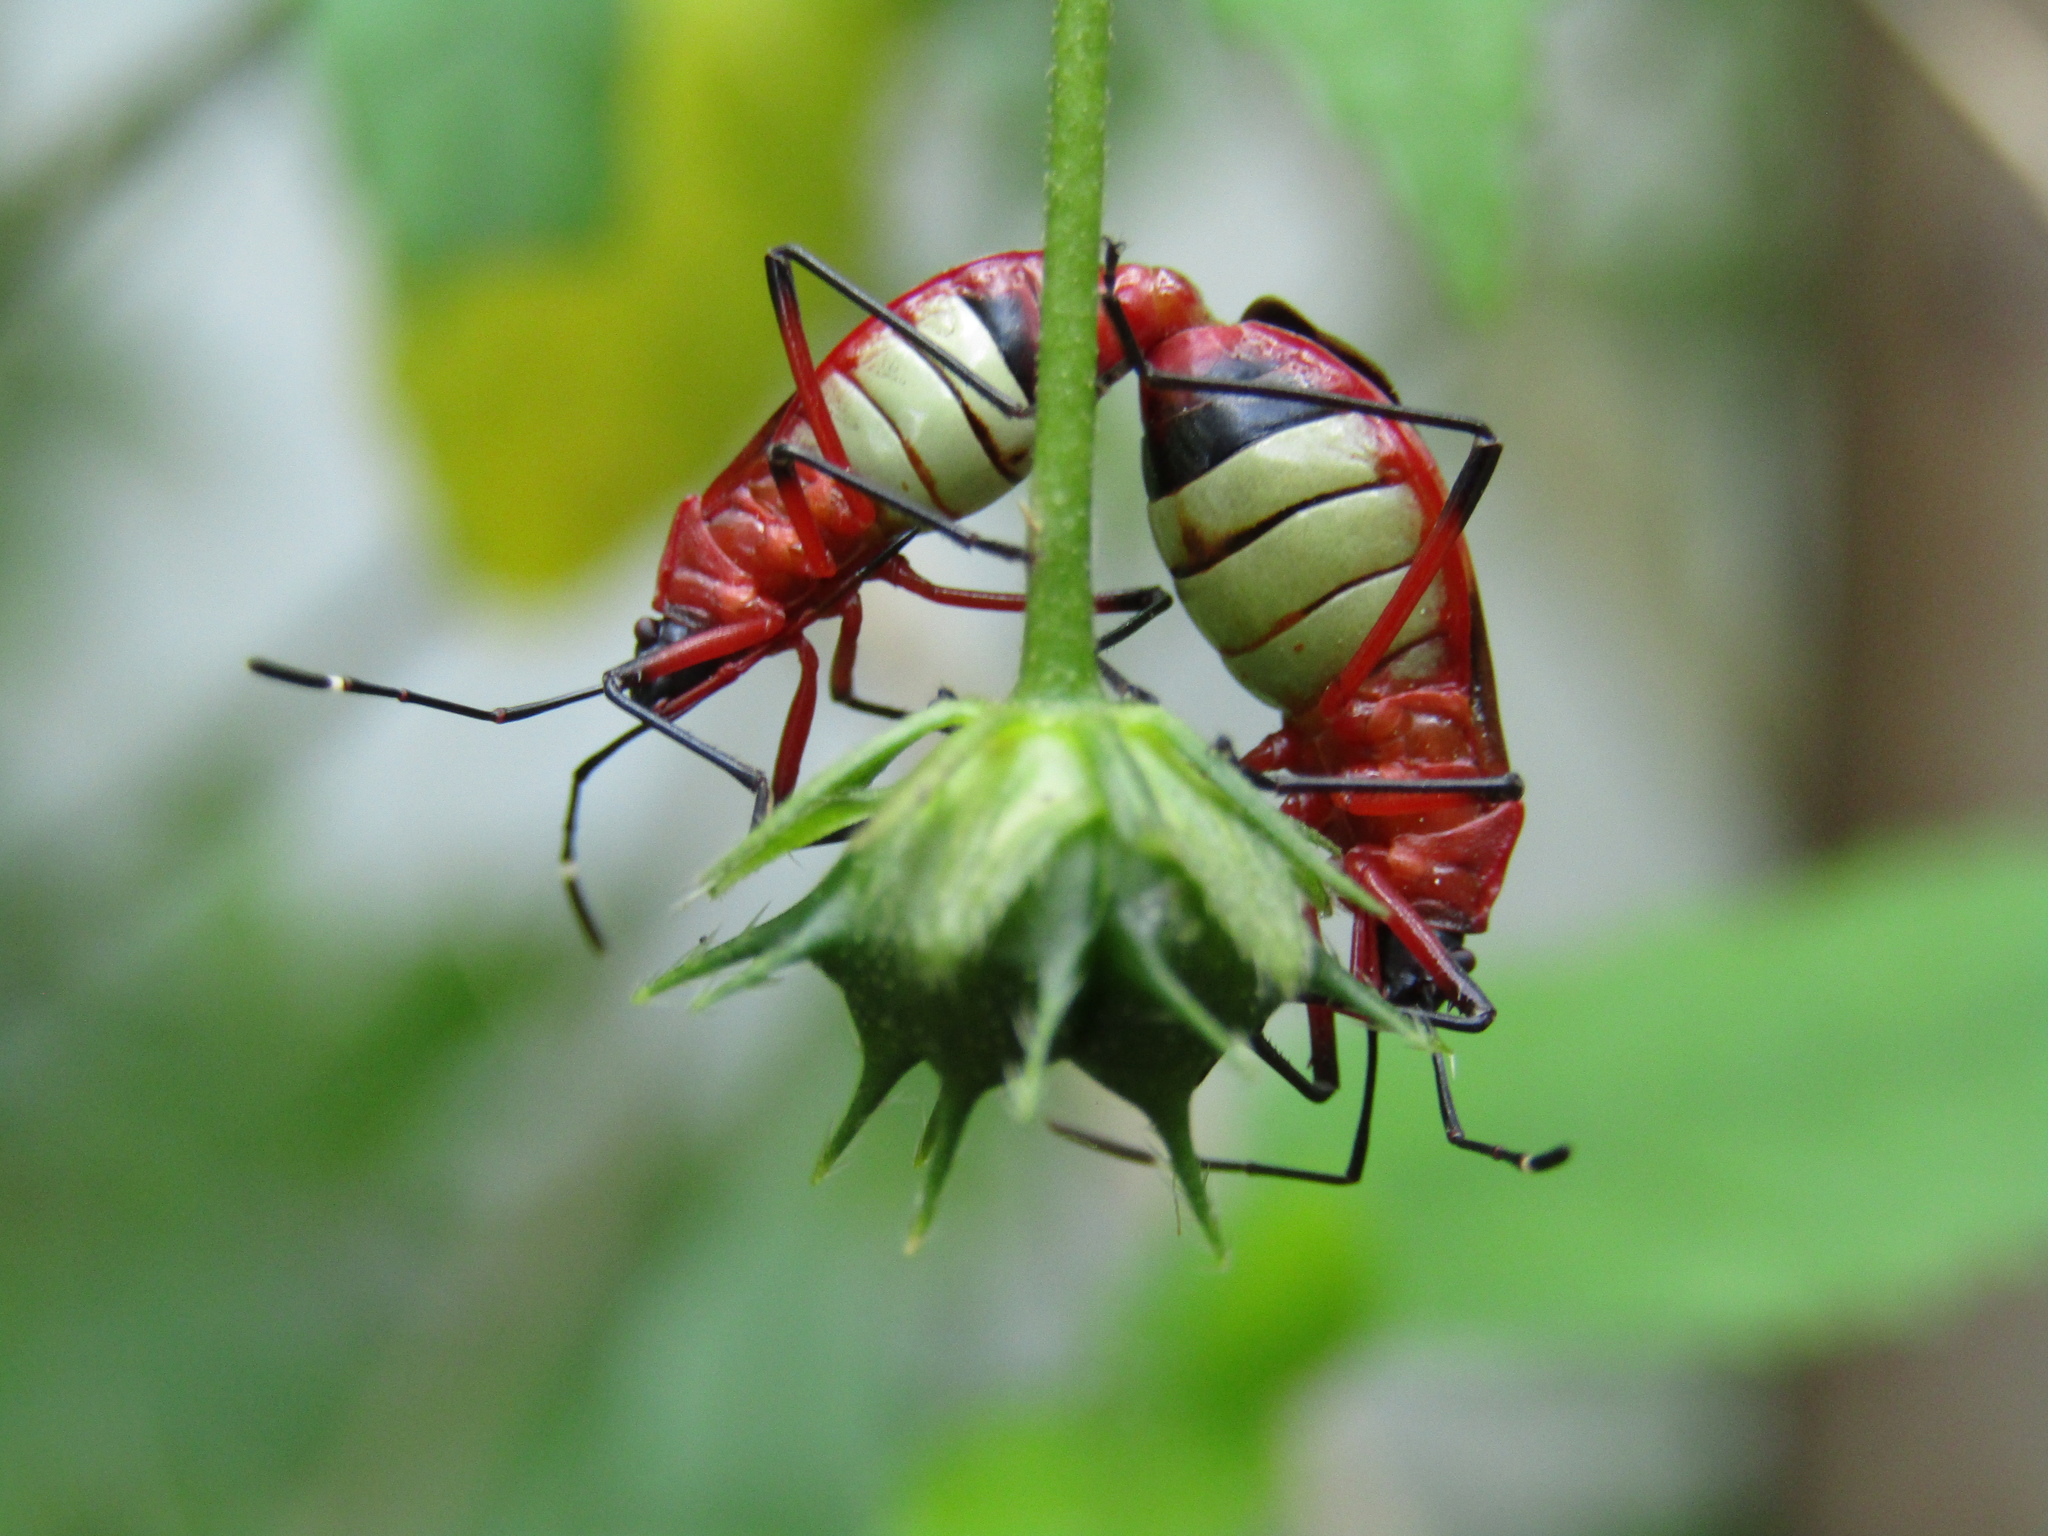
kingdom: Animalia
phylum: Arthropoda
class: Insecta
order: Hemiptera
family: Pyrrhocoridae
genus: Dysdercus
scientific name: Dysdercus albofasciatus
